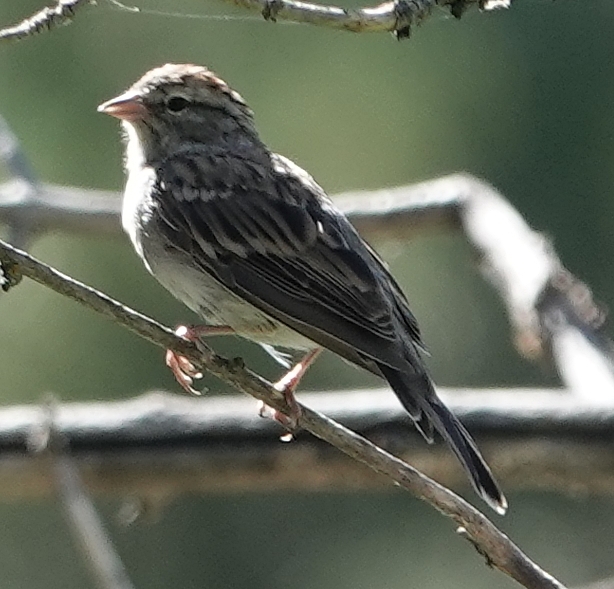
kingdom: Animalia
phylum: Chordata
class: Aves
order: Passeriformes
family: Passerellidae
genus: Spizella
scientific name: Spizella passerina
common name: Chipping sparrow
